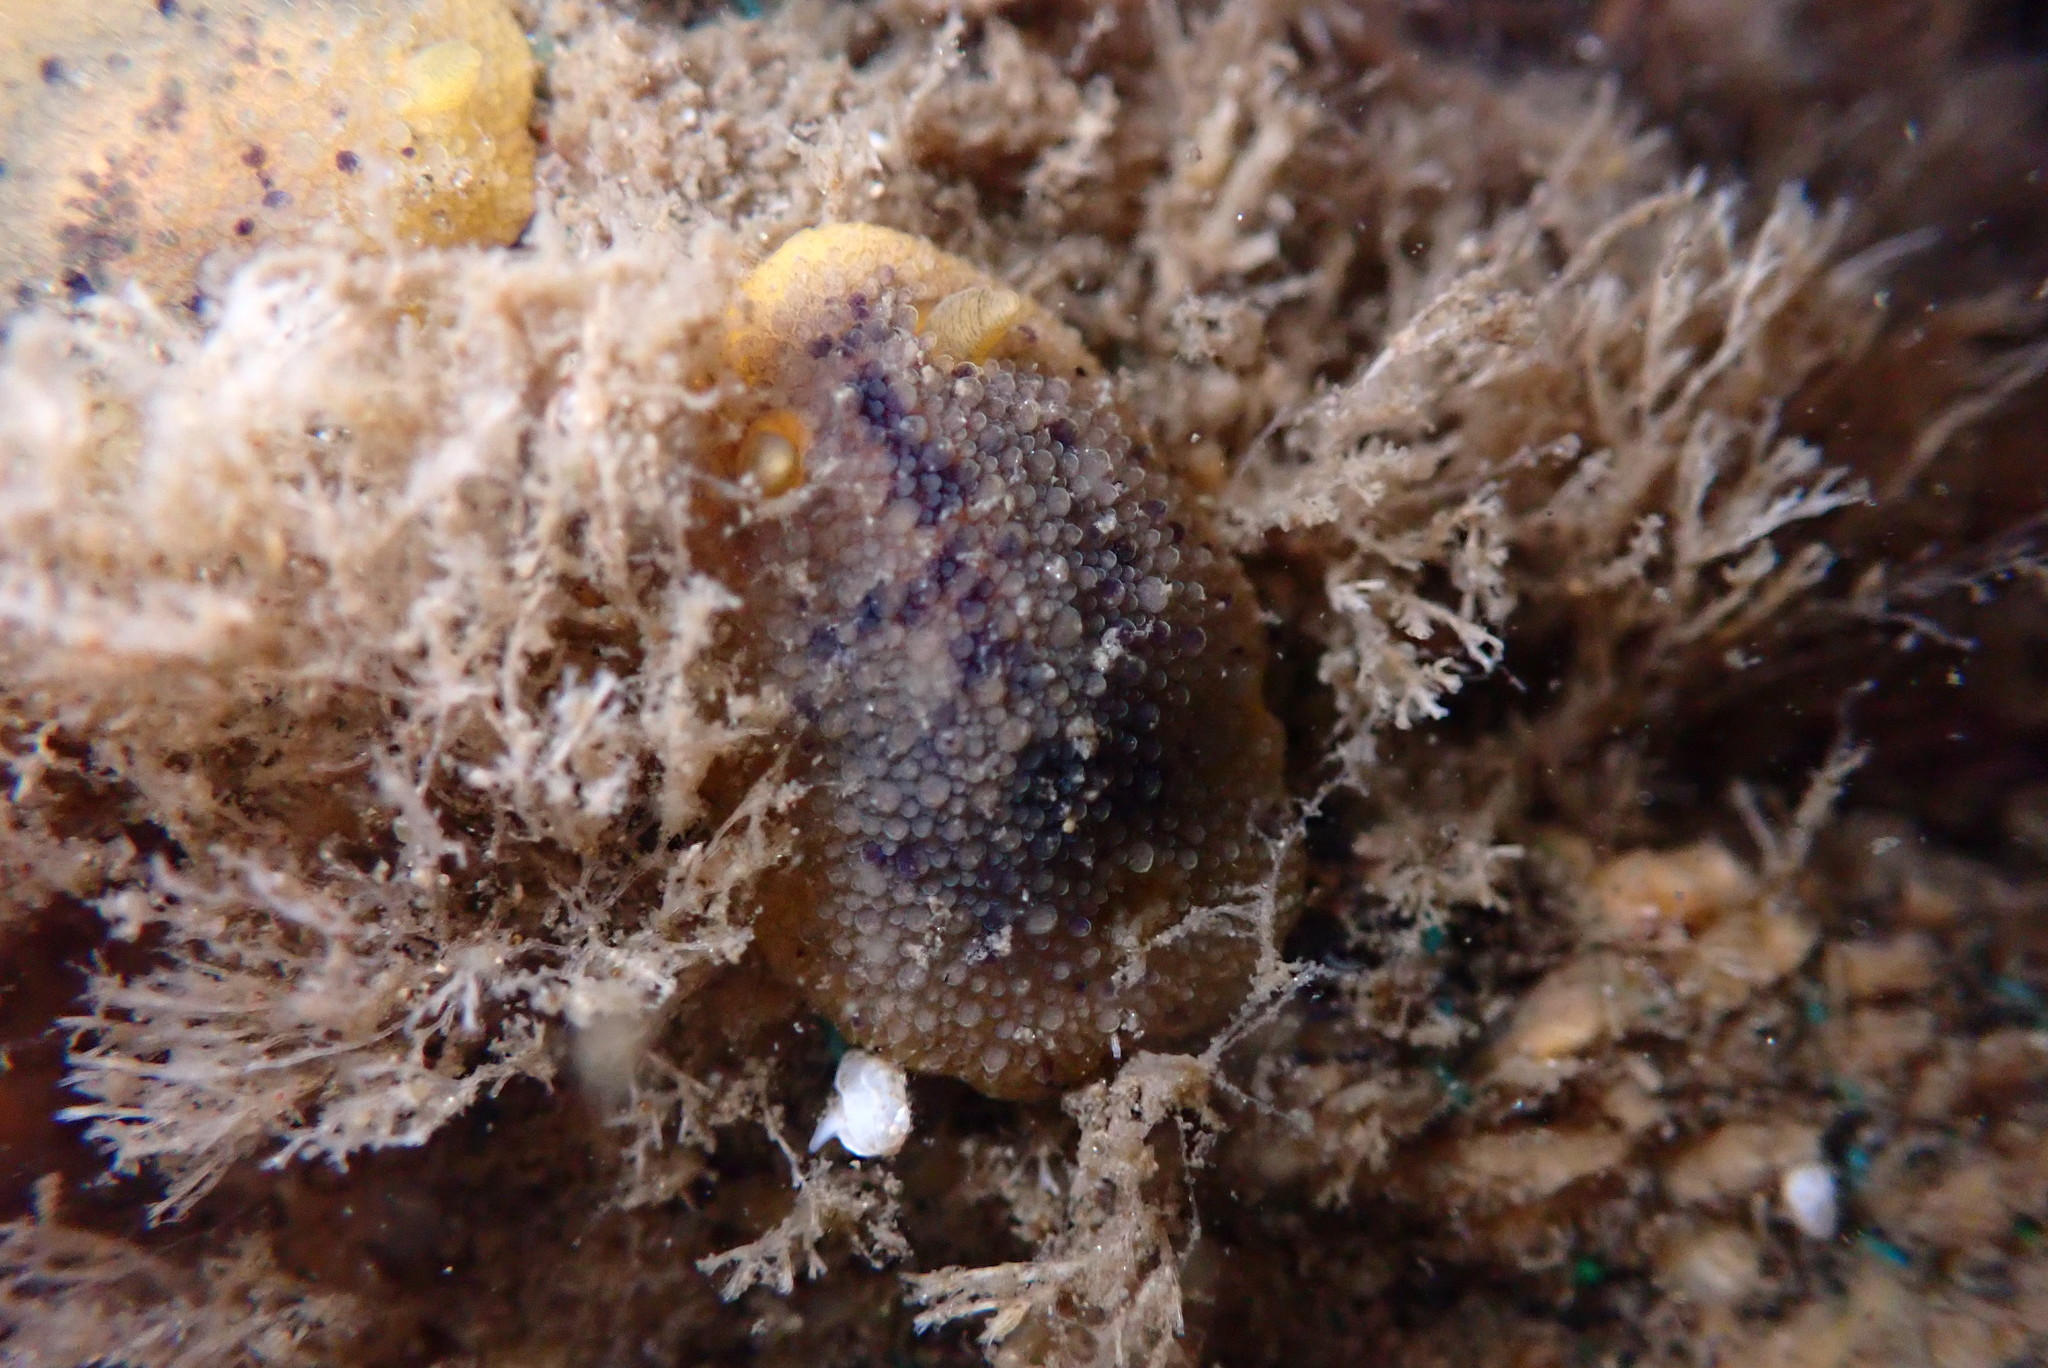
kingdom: Animalia
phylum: Mollusca
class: Gastropoda
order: Nudibranchia
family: Dorididae
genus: Doris
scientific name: Doris montereyensis
